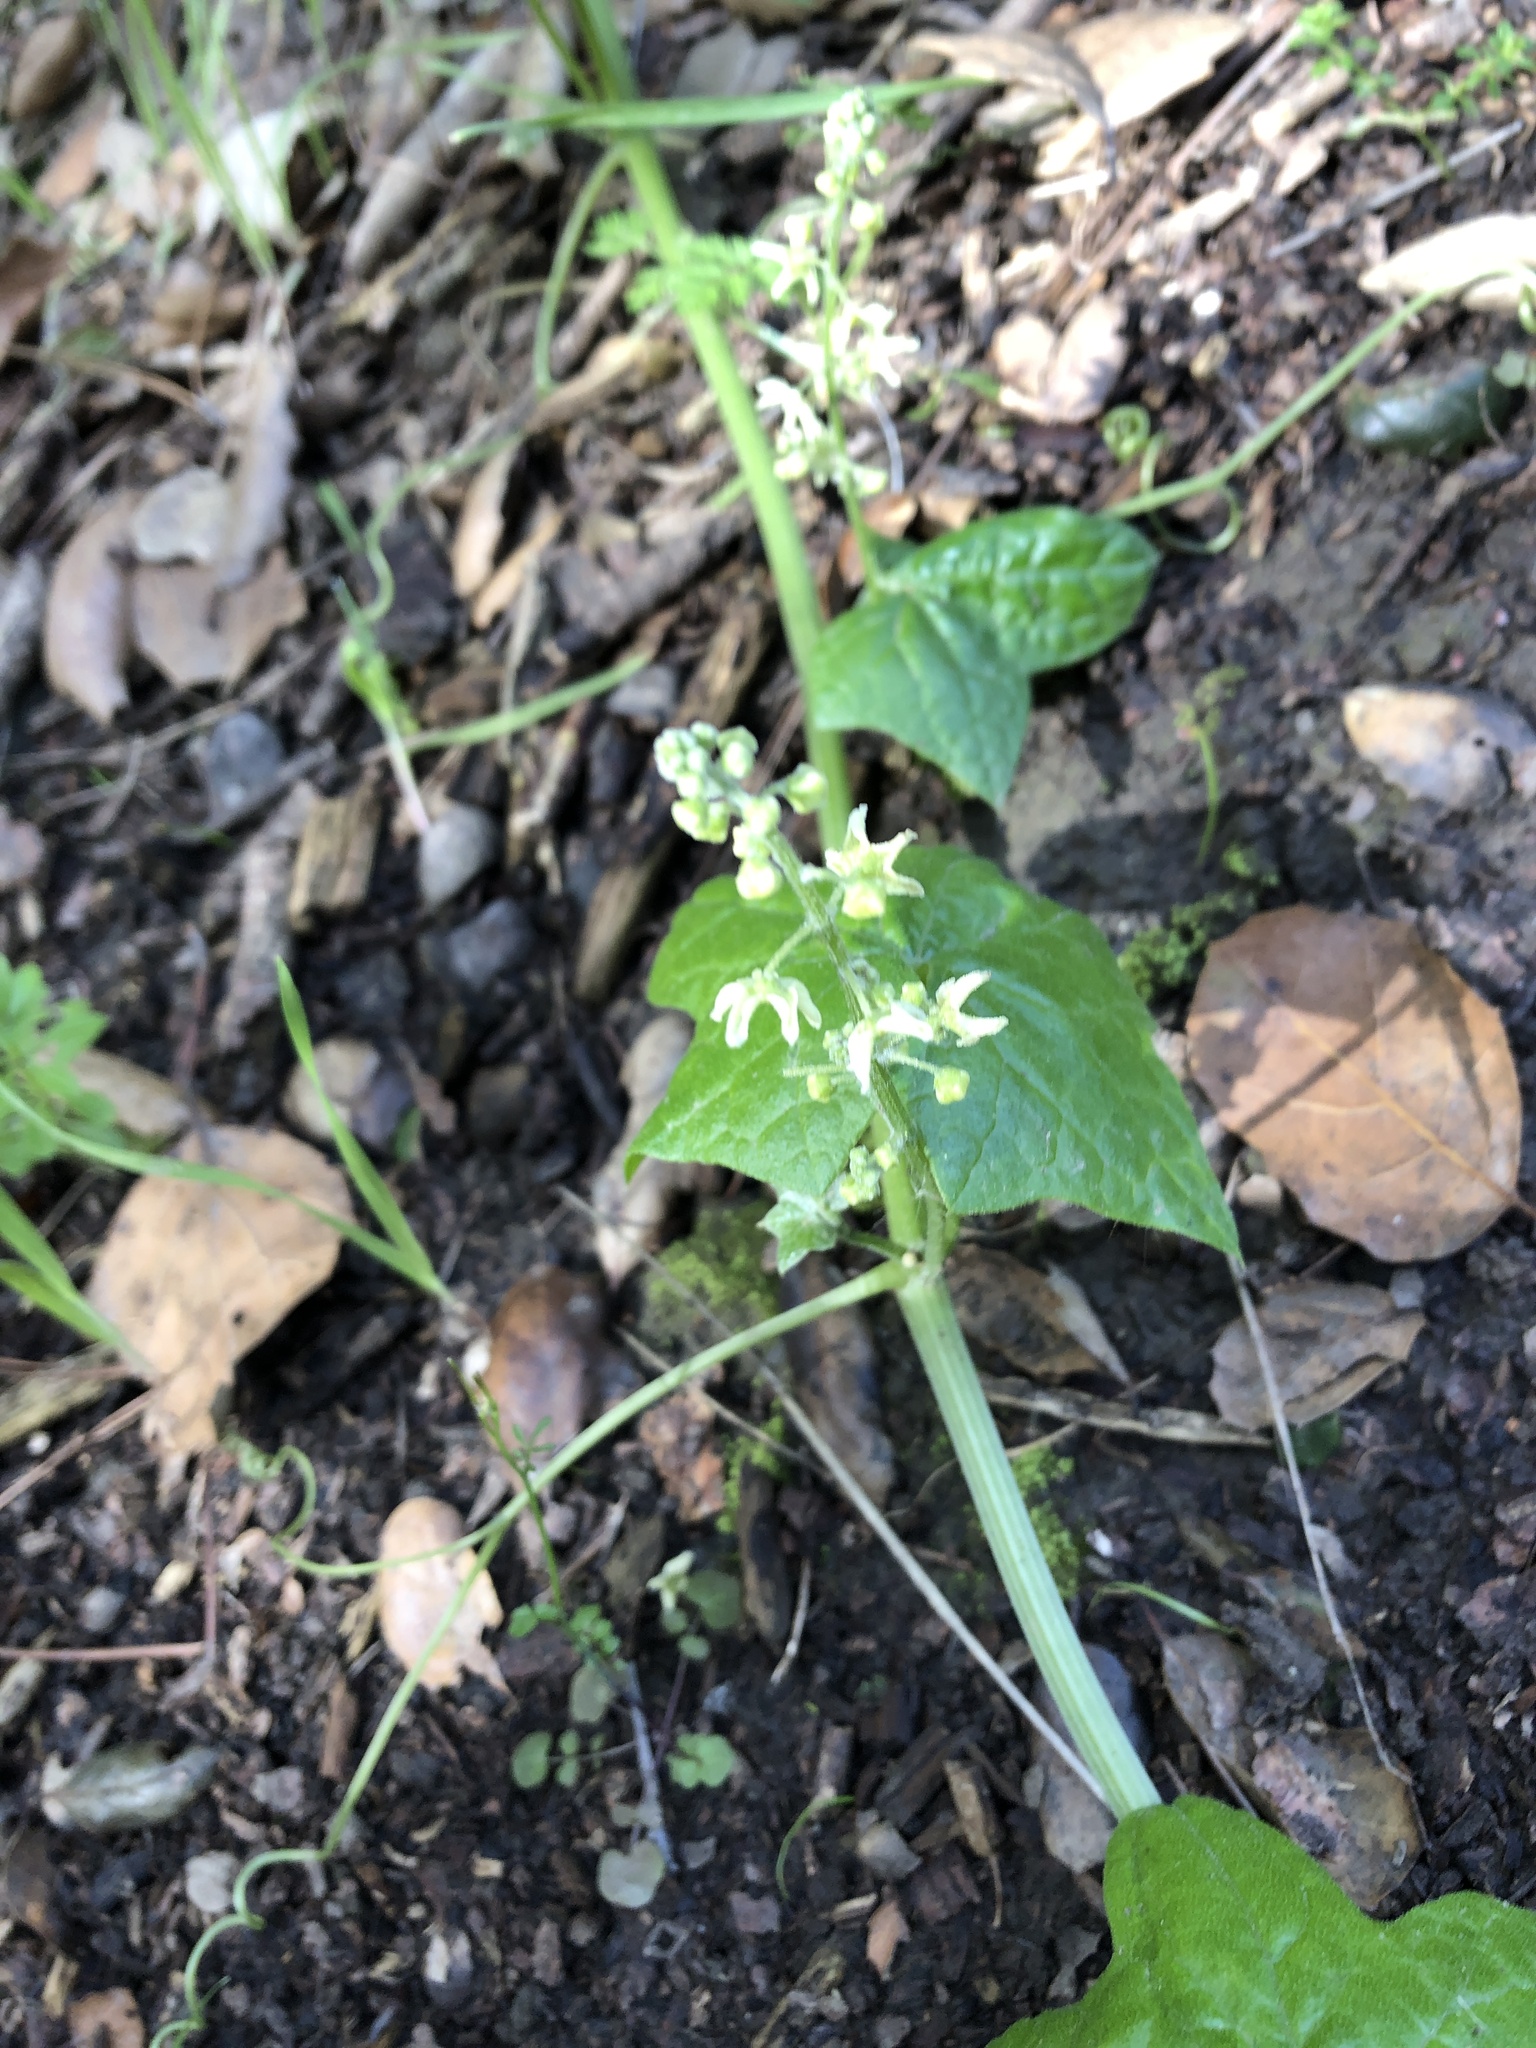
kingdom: Plantae
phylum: Tracheophyta
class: Magnoliopsida
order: Cucurbitales
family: Cucurbitaceae
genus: Marah
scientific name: Marah fabacea
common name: California manroot
